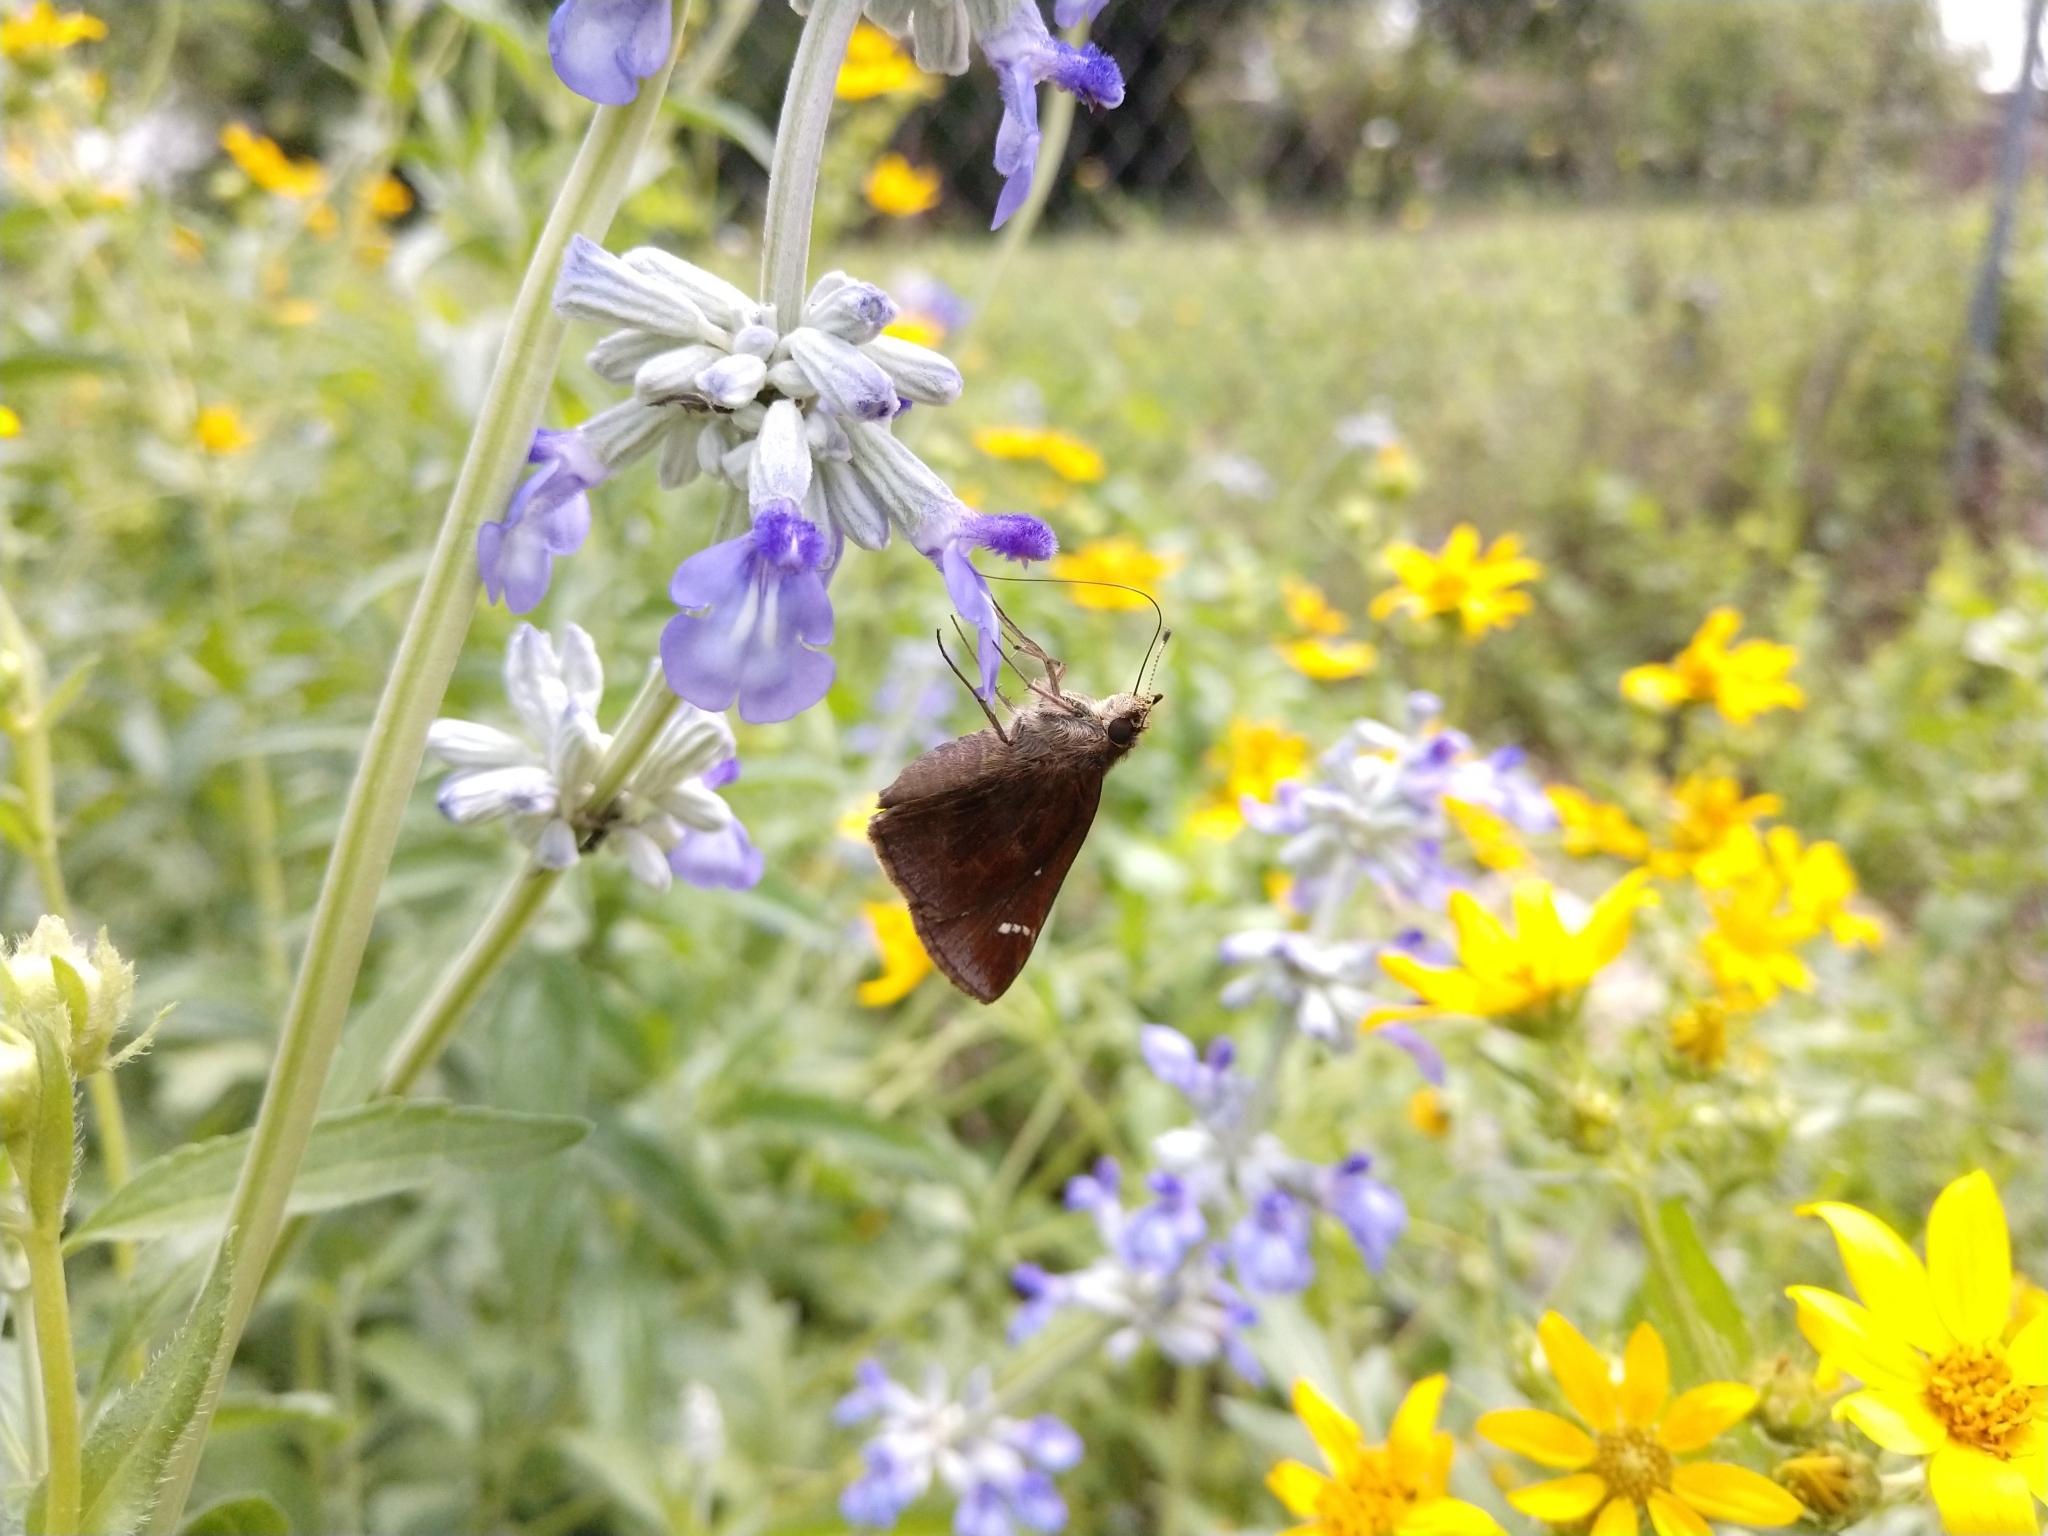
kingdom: Animalia
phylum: Arthropoda
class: Insecta
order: Lepidoptera
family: Hesperiidae
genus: Lerema
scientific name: Lerema accius
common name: Clouded skipper
